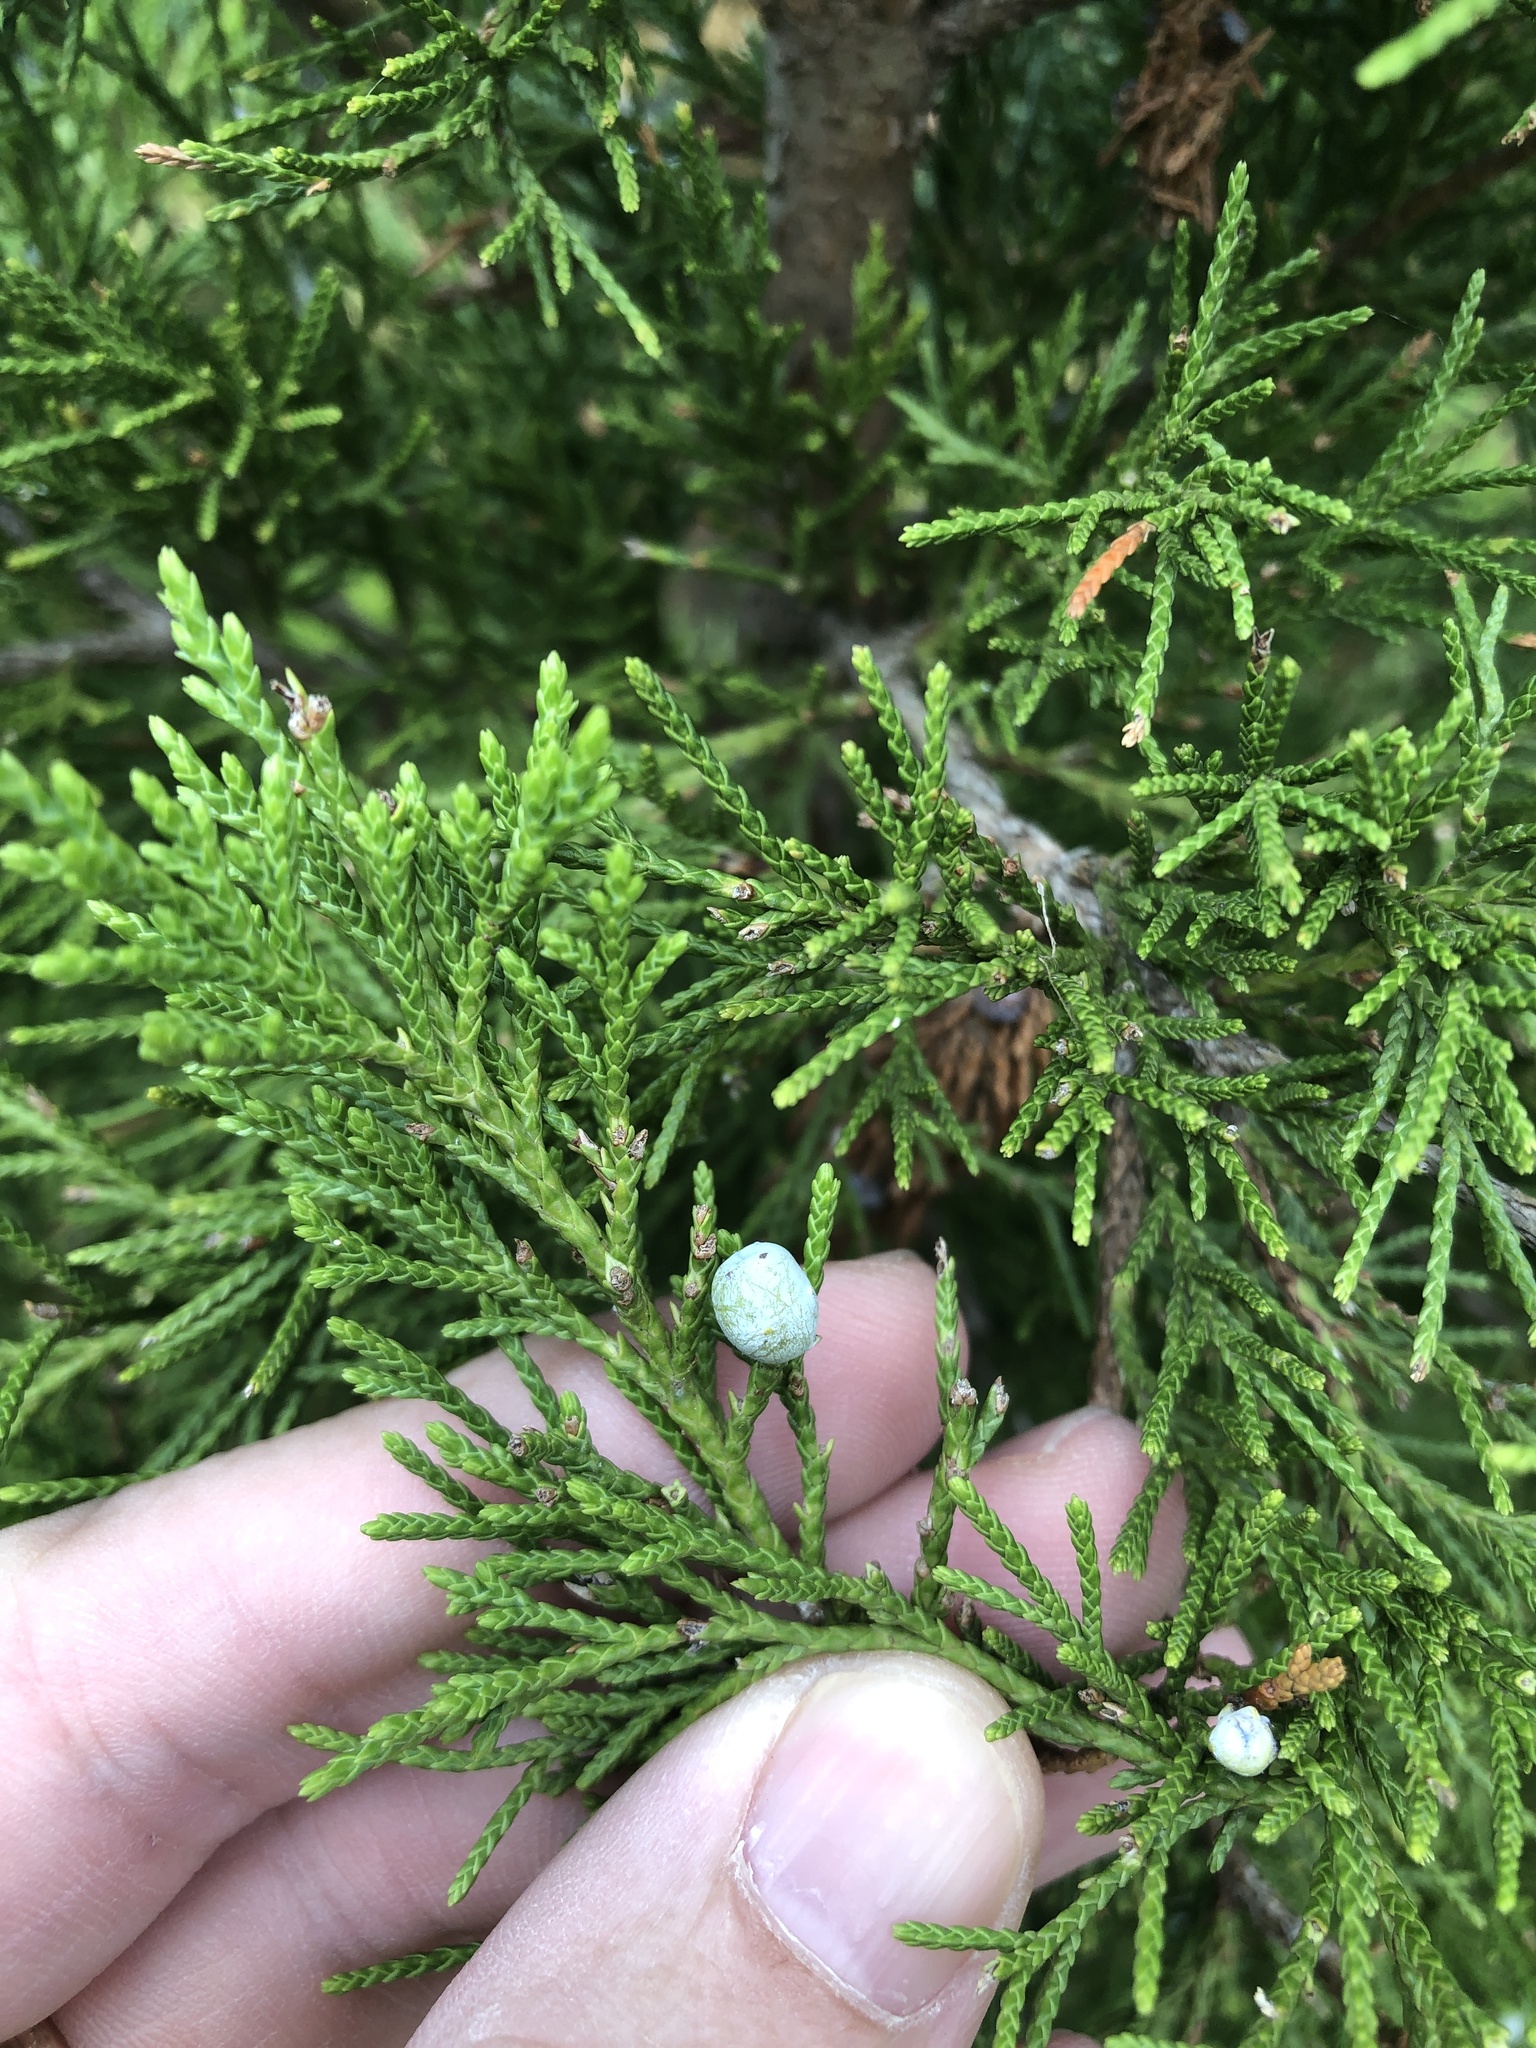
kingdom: Plantae
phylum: Tracheophyta
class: Pinopsida
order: Pinales
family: Cupressaceae
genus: Juniperus
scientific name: Juniperus virginiana
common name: Red juniper
